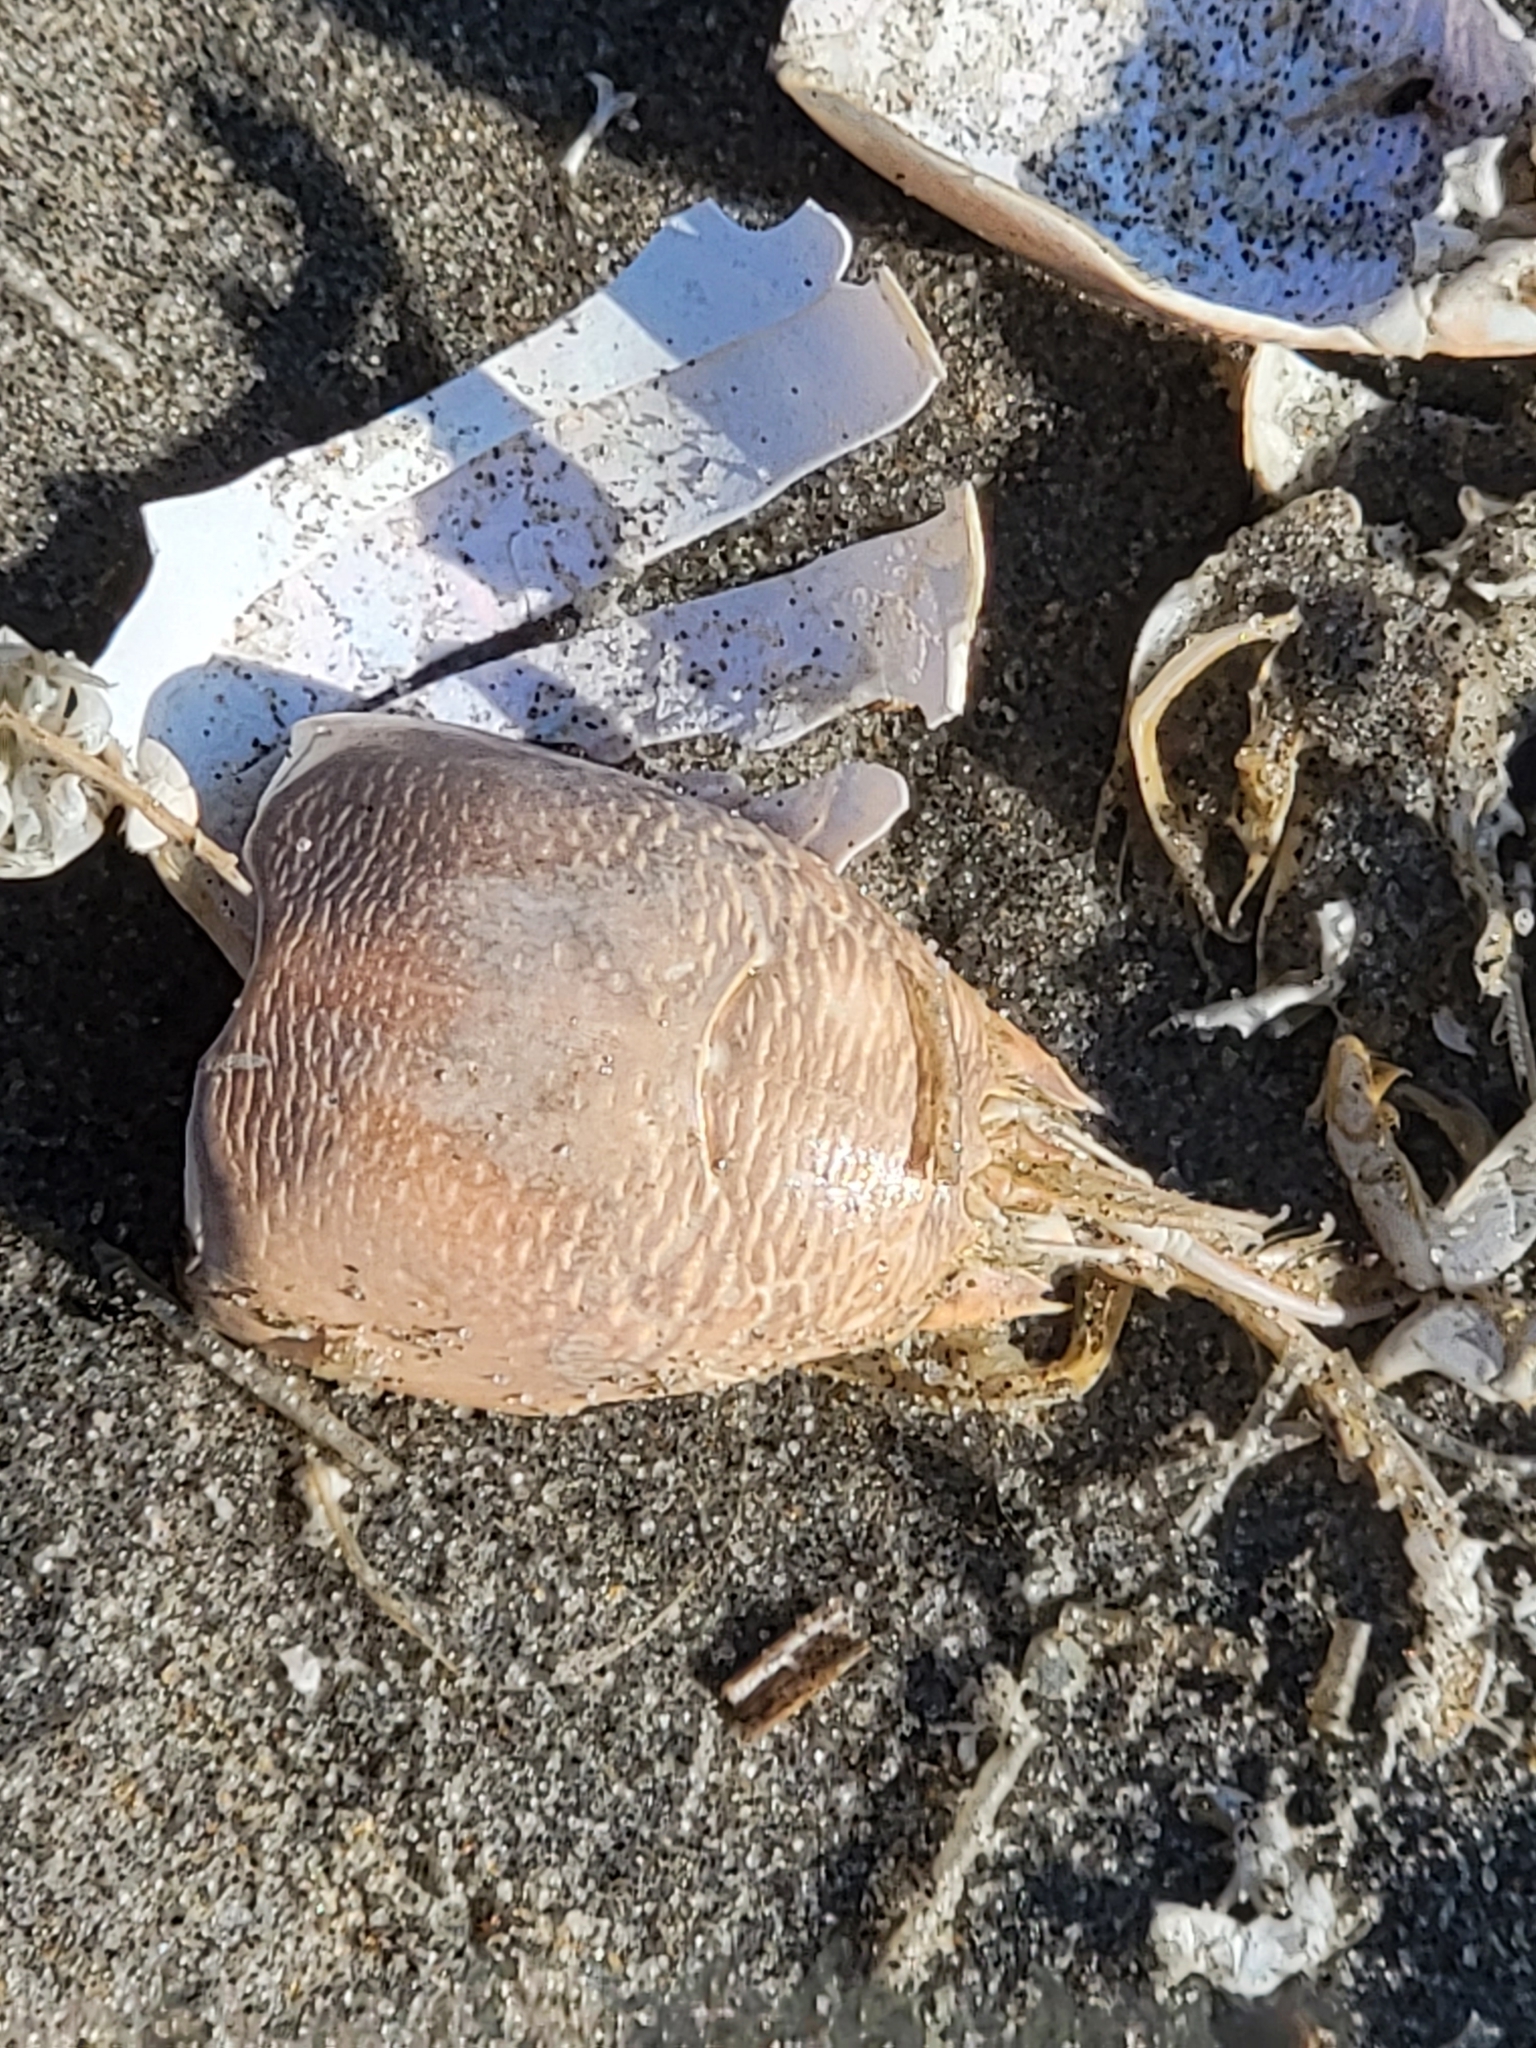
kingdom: Animalia
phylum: Arthropoda
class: Malacostraca
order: Decapoda
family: Hippidae
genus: Emerita
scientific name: Emerita talpoida
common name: Atlantic sand crab
